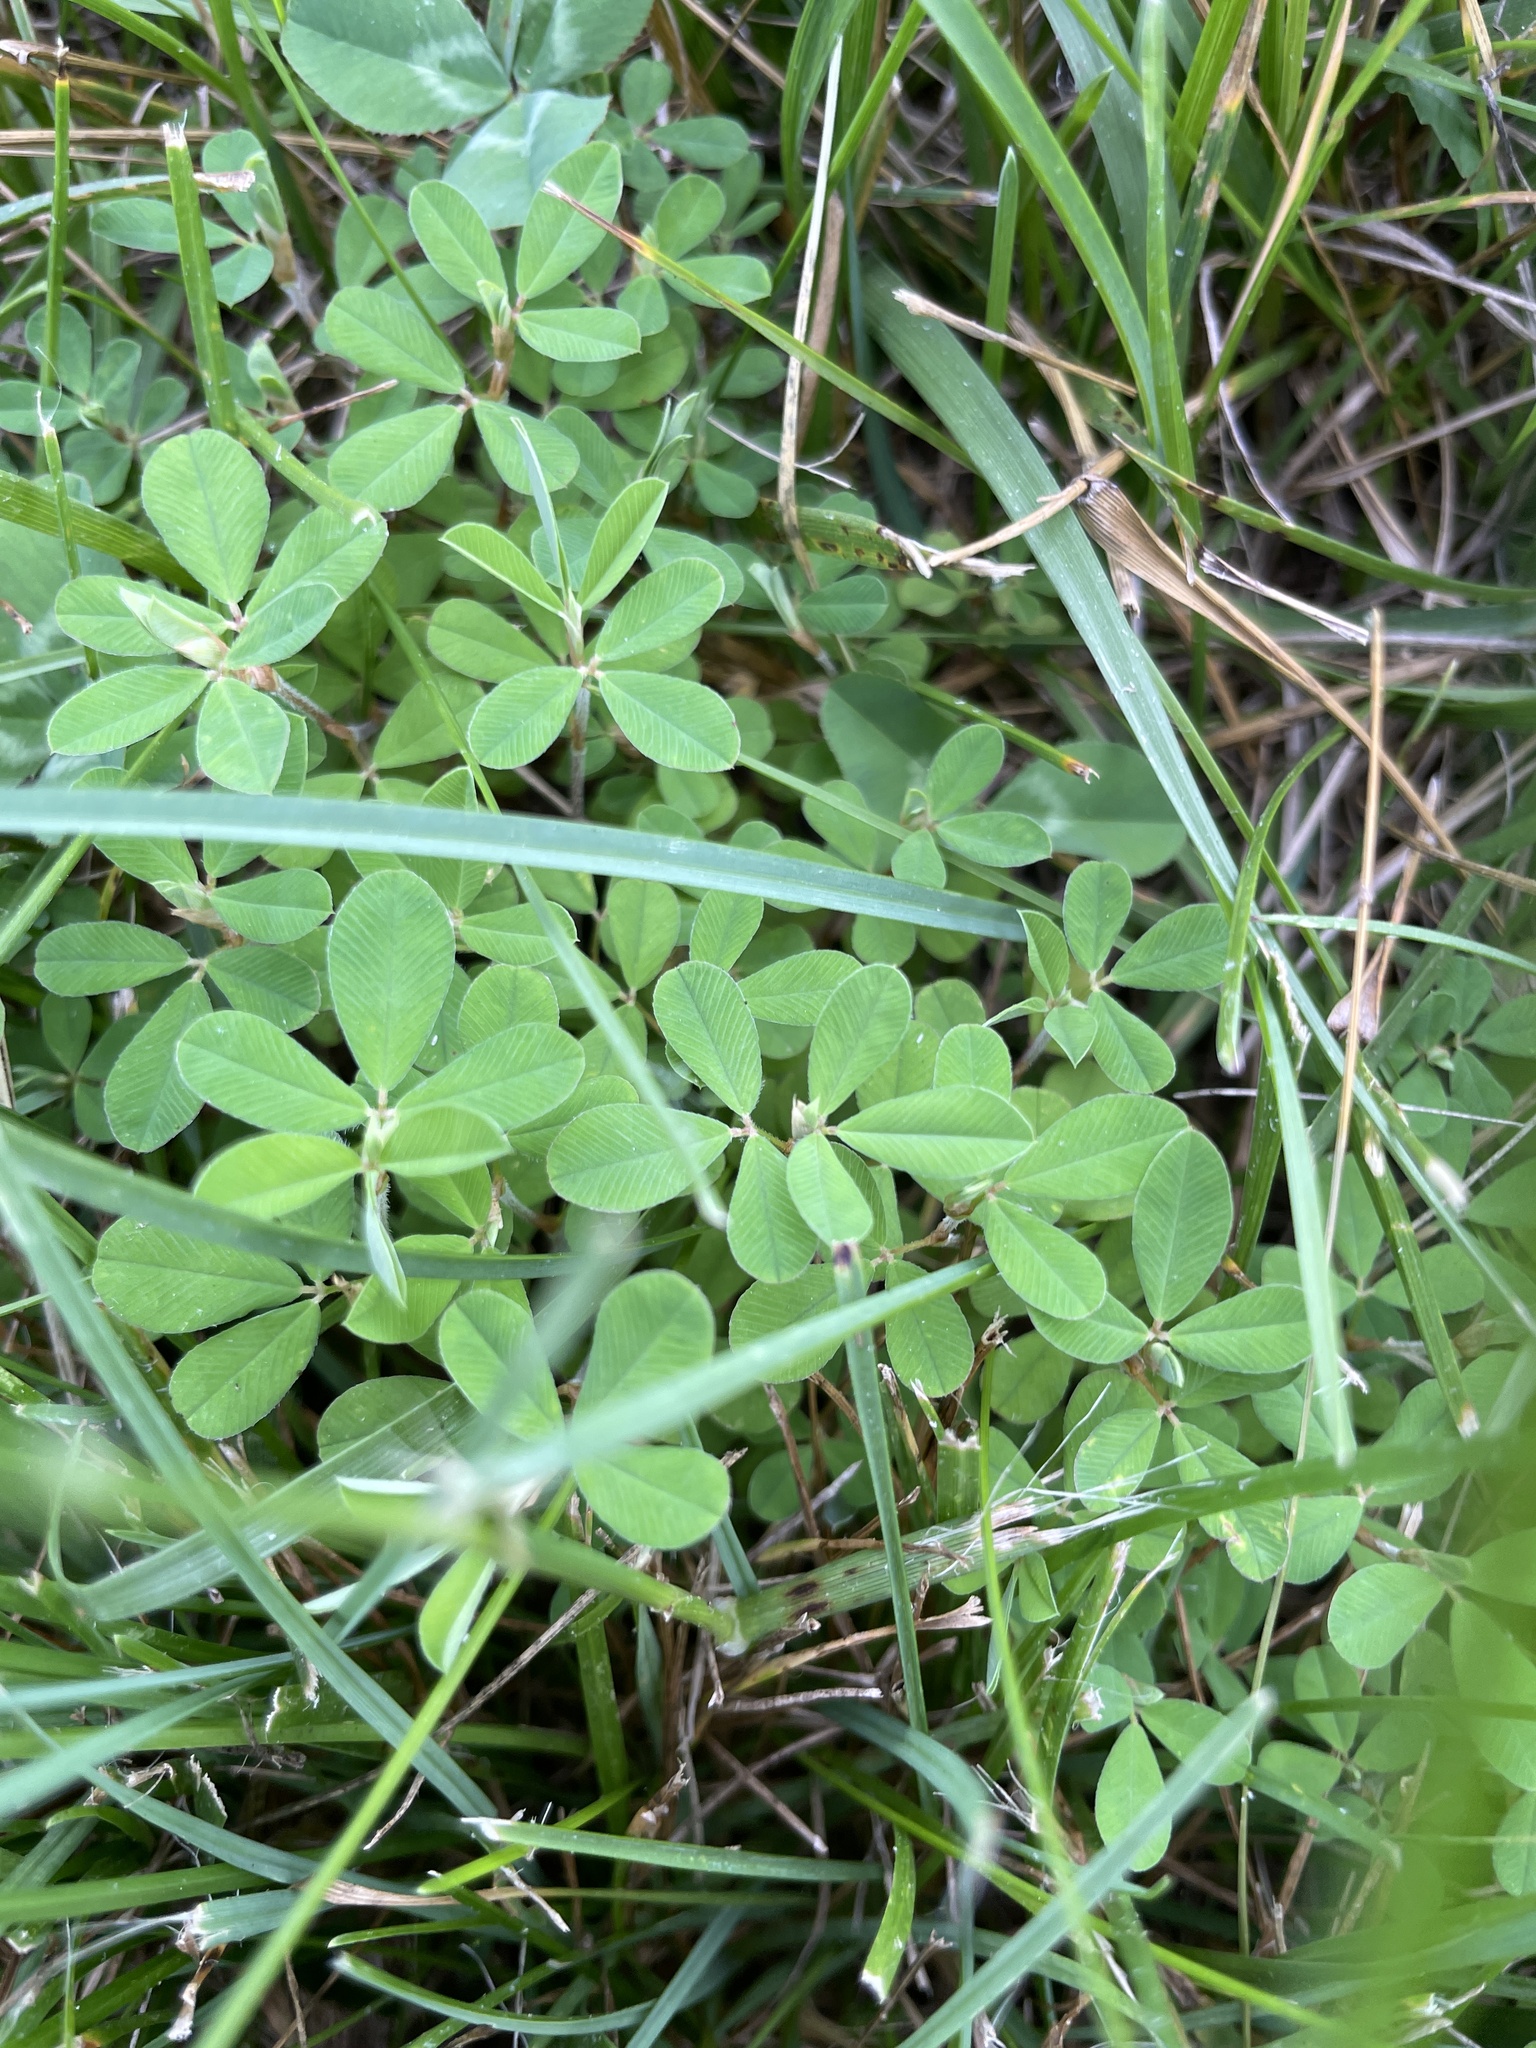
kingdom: Plantae
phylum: Tracheophyta
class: Magnoliopsida
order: Fabales
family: Fabaceae
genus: Kummerowia
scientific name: Kummerowia striata
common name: Japanese clover
